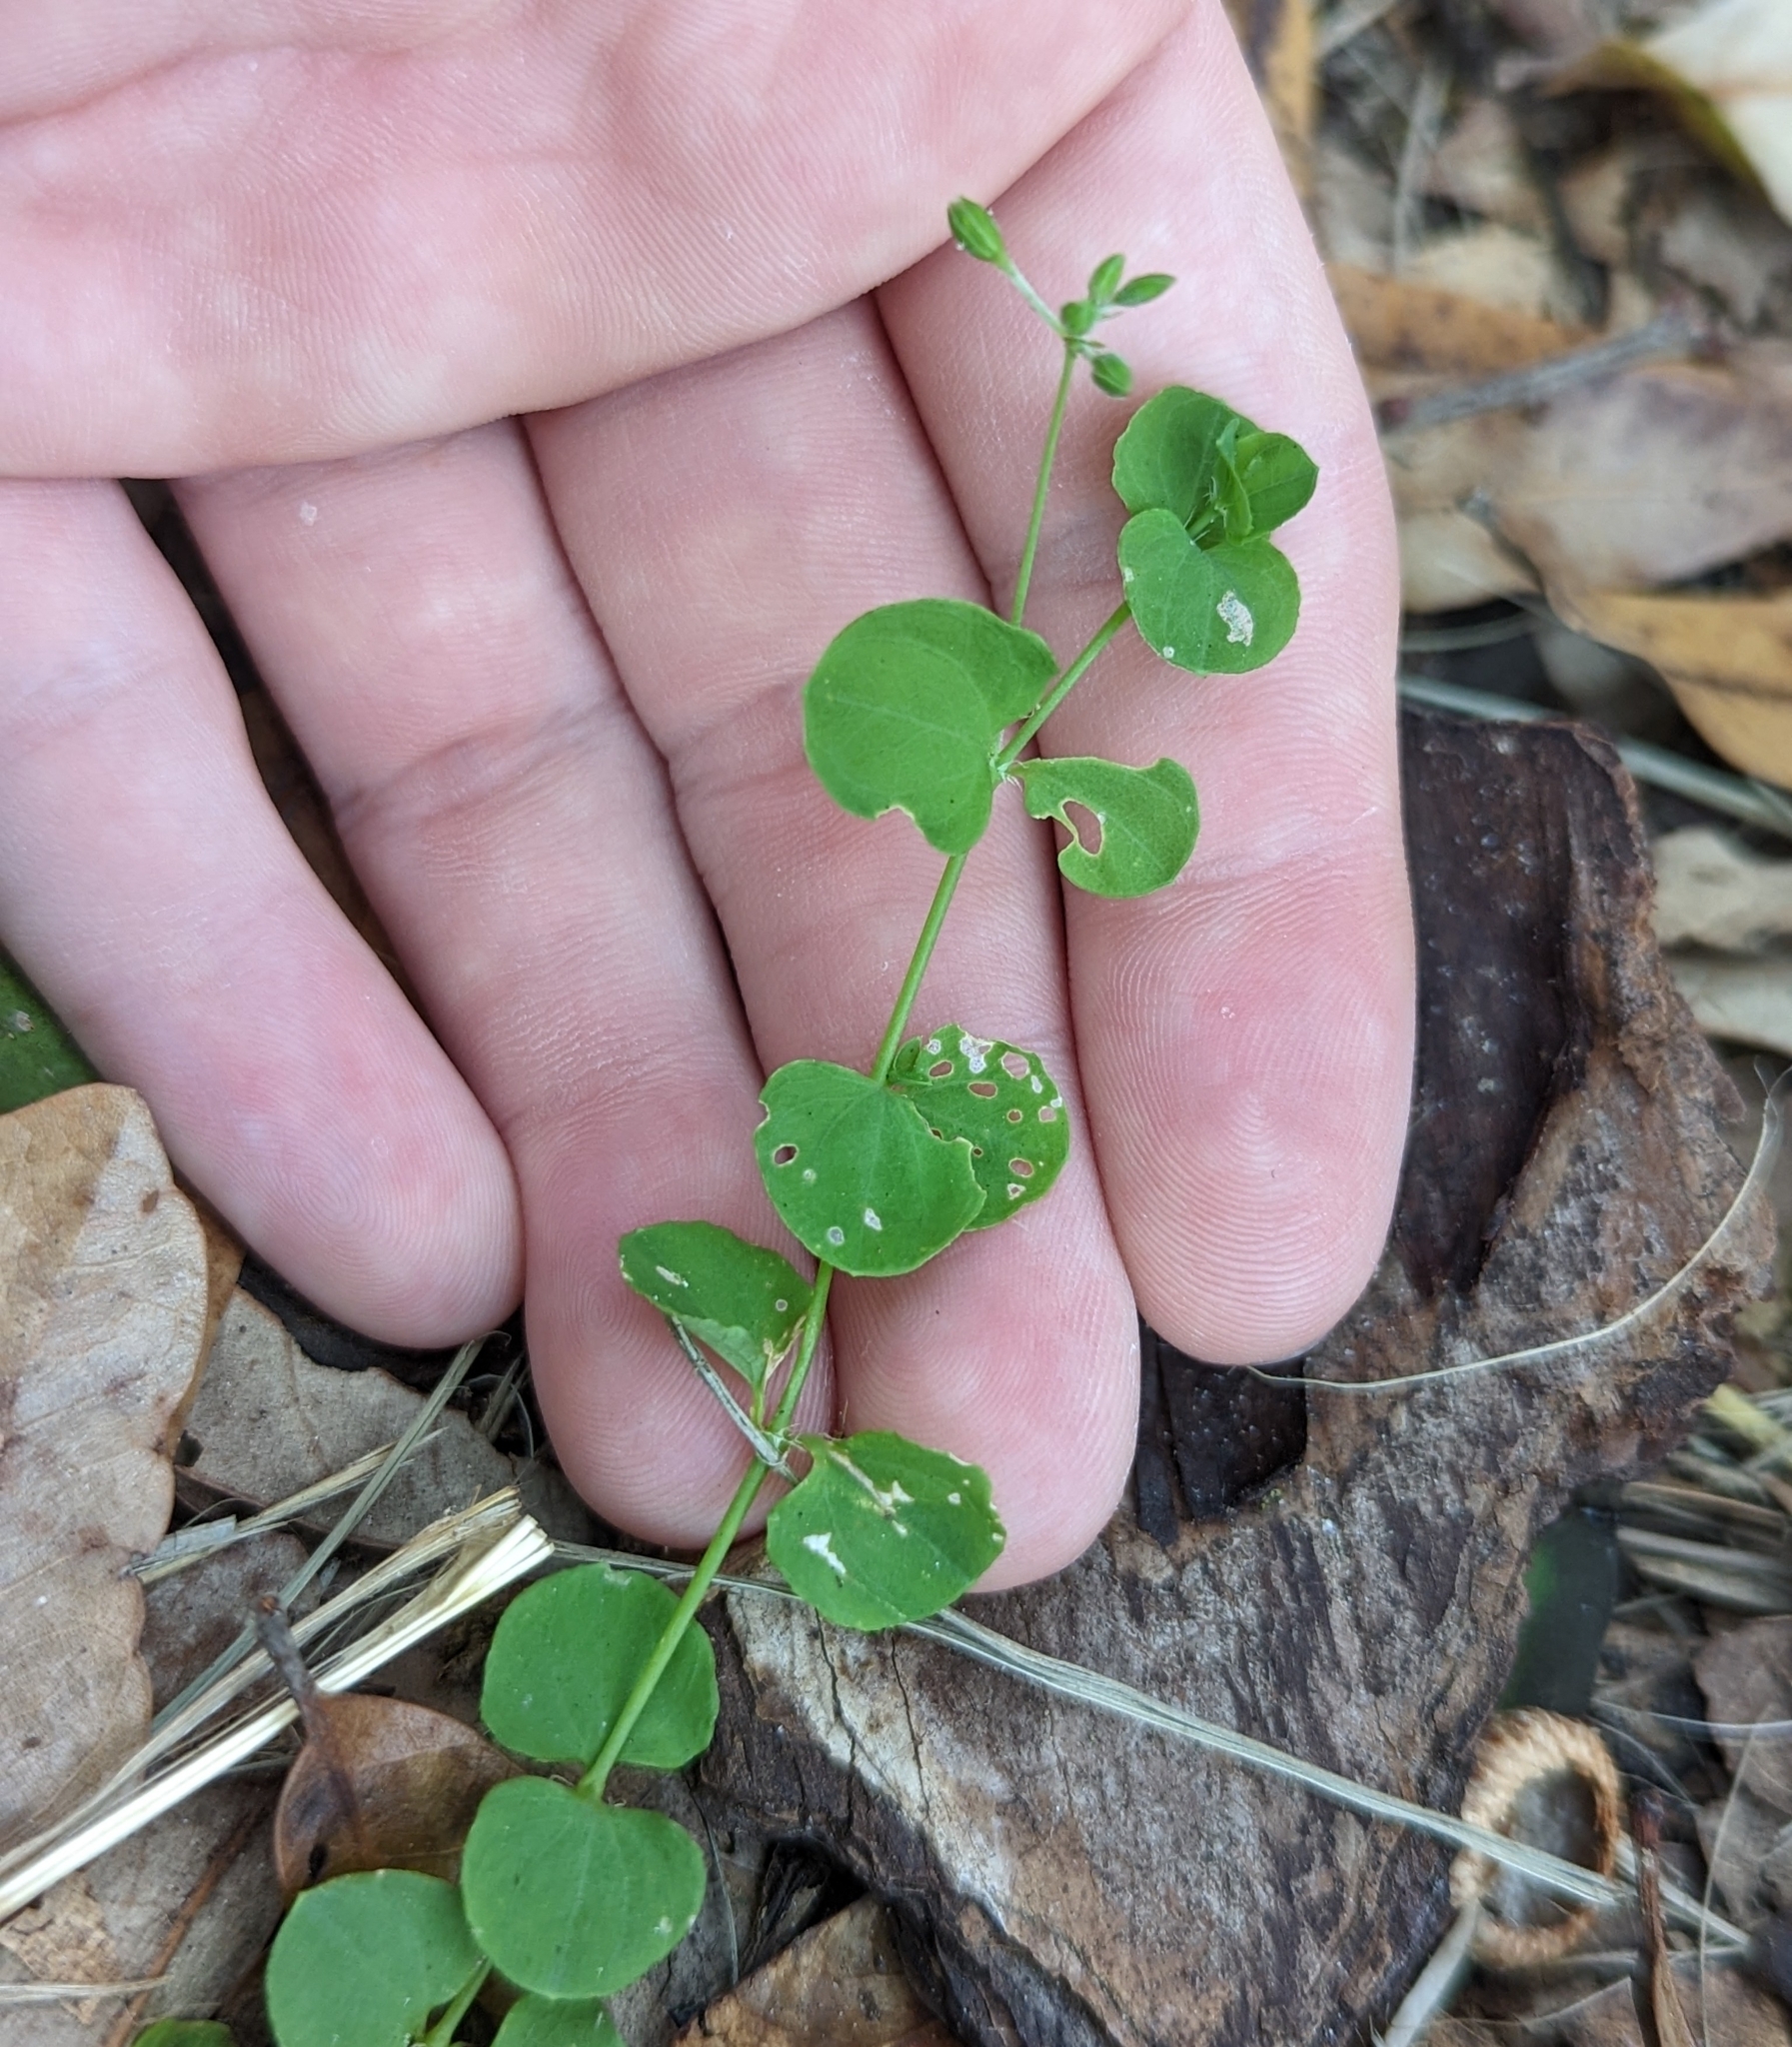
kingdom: Plantae
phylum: Tracheophyta
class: Magnoliopsida
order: Caryophyllales
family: Caryophyllaceae
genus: Drymaria
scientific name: Drymaria cordata
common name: Whitesnow
